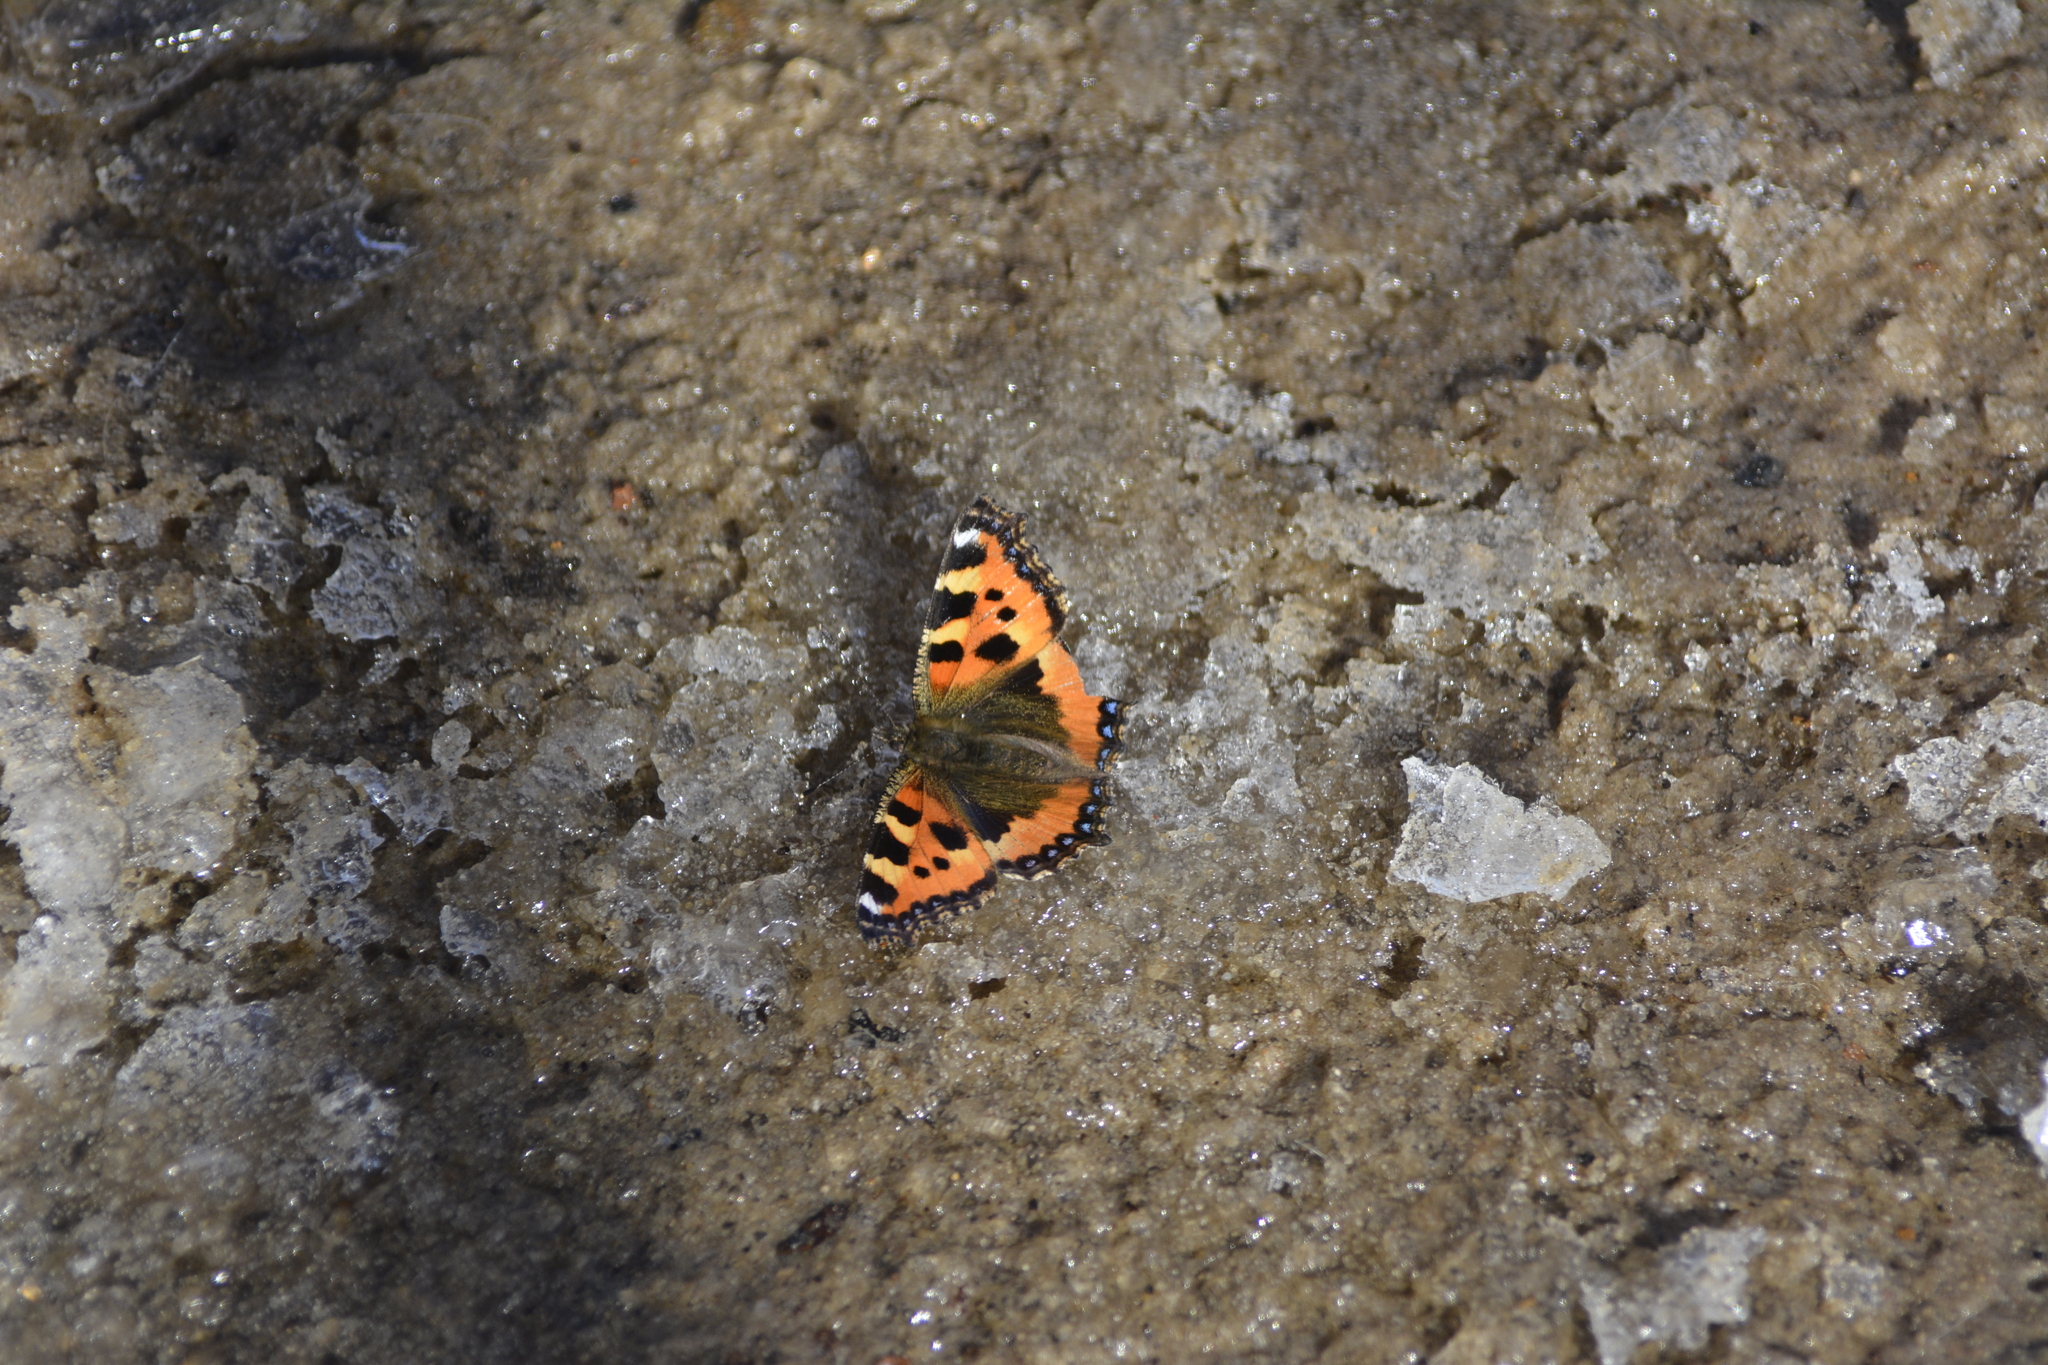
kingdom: Animalia
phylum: Arthropoda
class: Insecta
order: Lepidoptera
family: Nymphalidae
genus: Aglais
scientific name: Aglais urticae
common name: Small tortoiseshell
